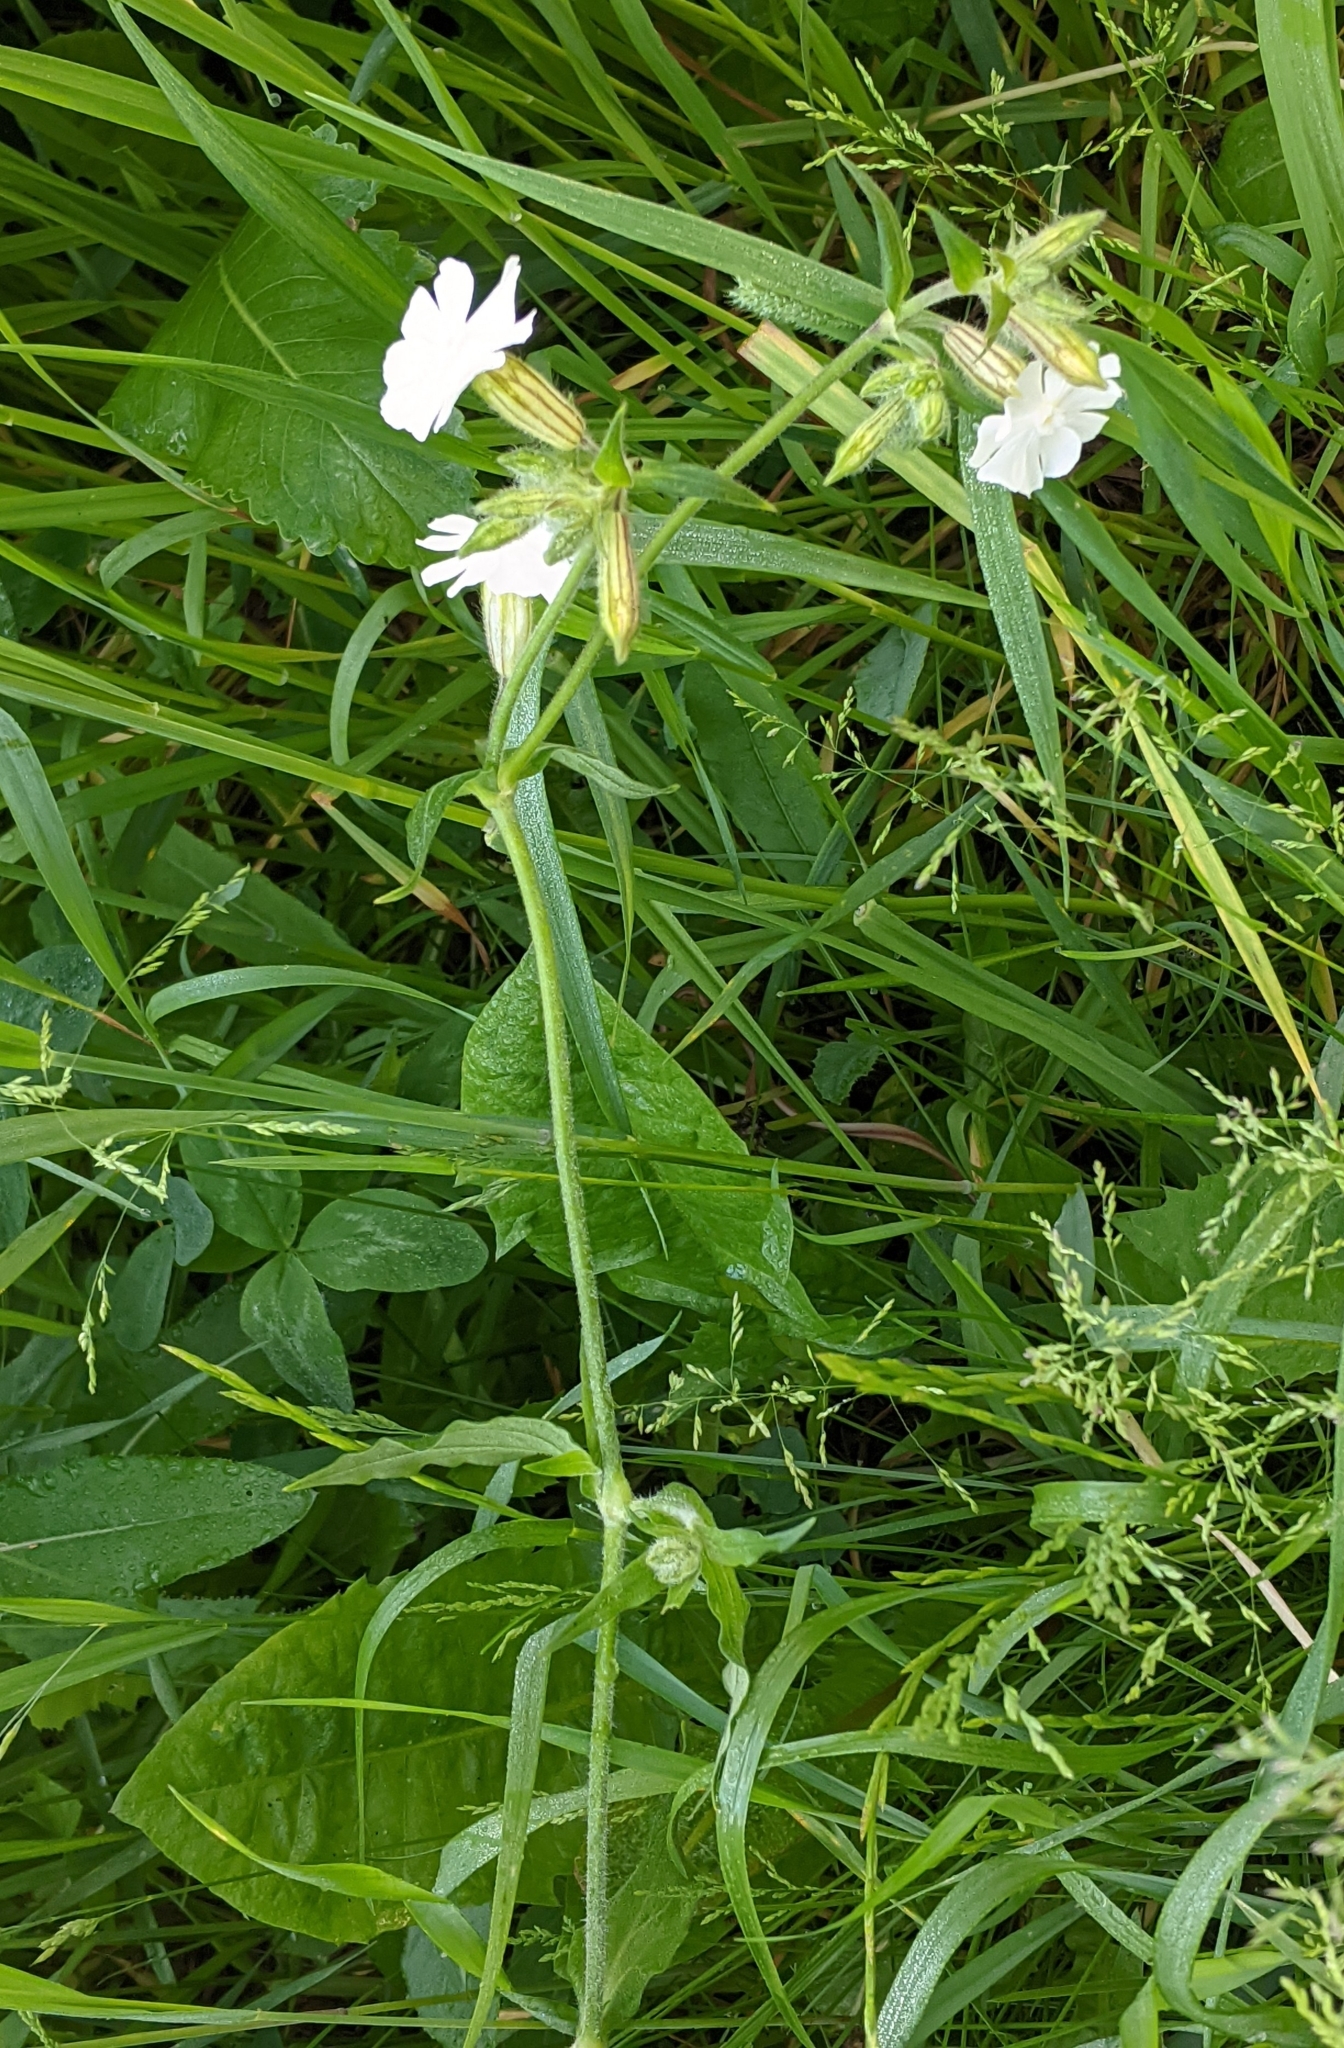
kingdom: Plantae
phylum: Tracheophyta
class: Magnoliopsida
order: Caryophyllales
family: Caryophyllaceae
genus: Silene
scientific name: Silene latifolia
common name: White campion
